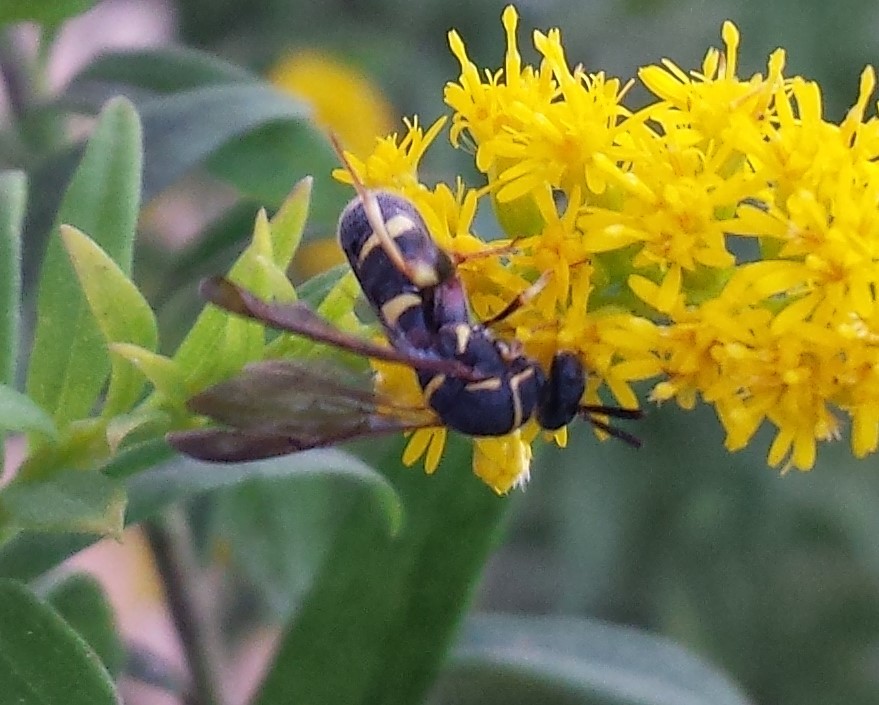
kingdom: Animalia
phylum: Arthropoda
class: Insecta
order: Hymenoptera
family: Leucospidae
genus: Leucospis
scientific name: Leucospis affinis
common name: Wasp
